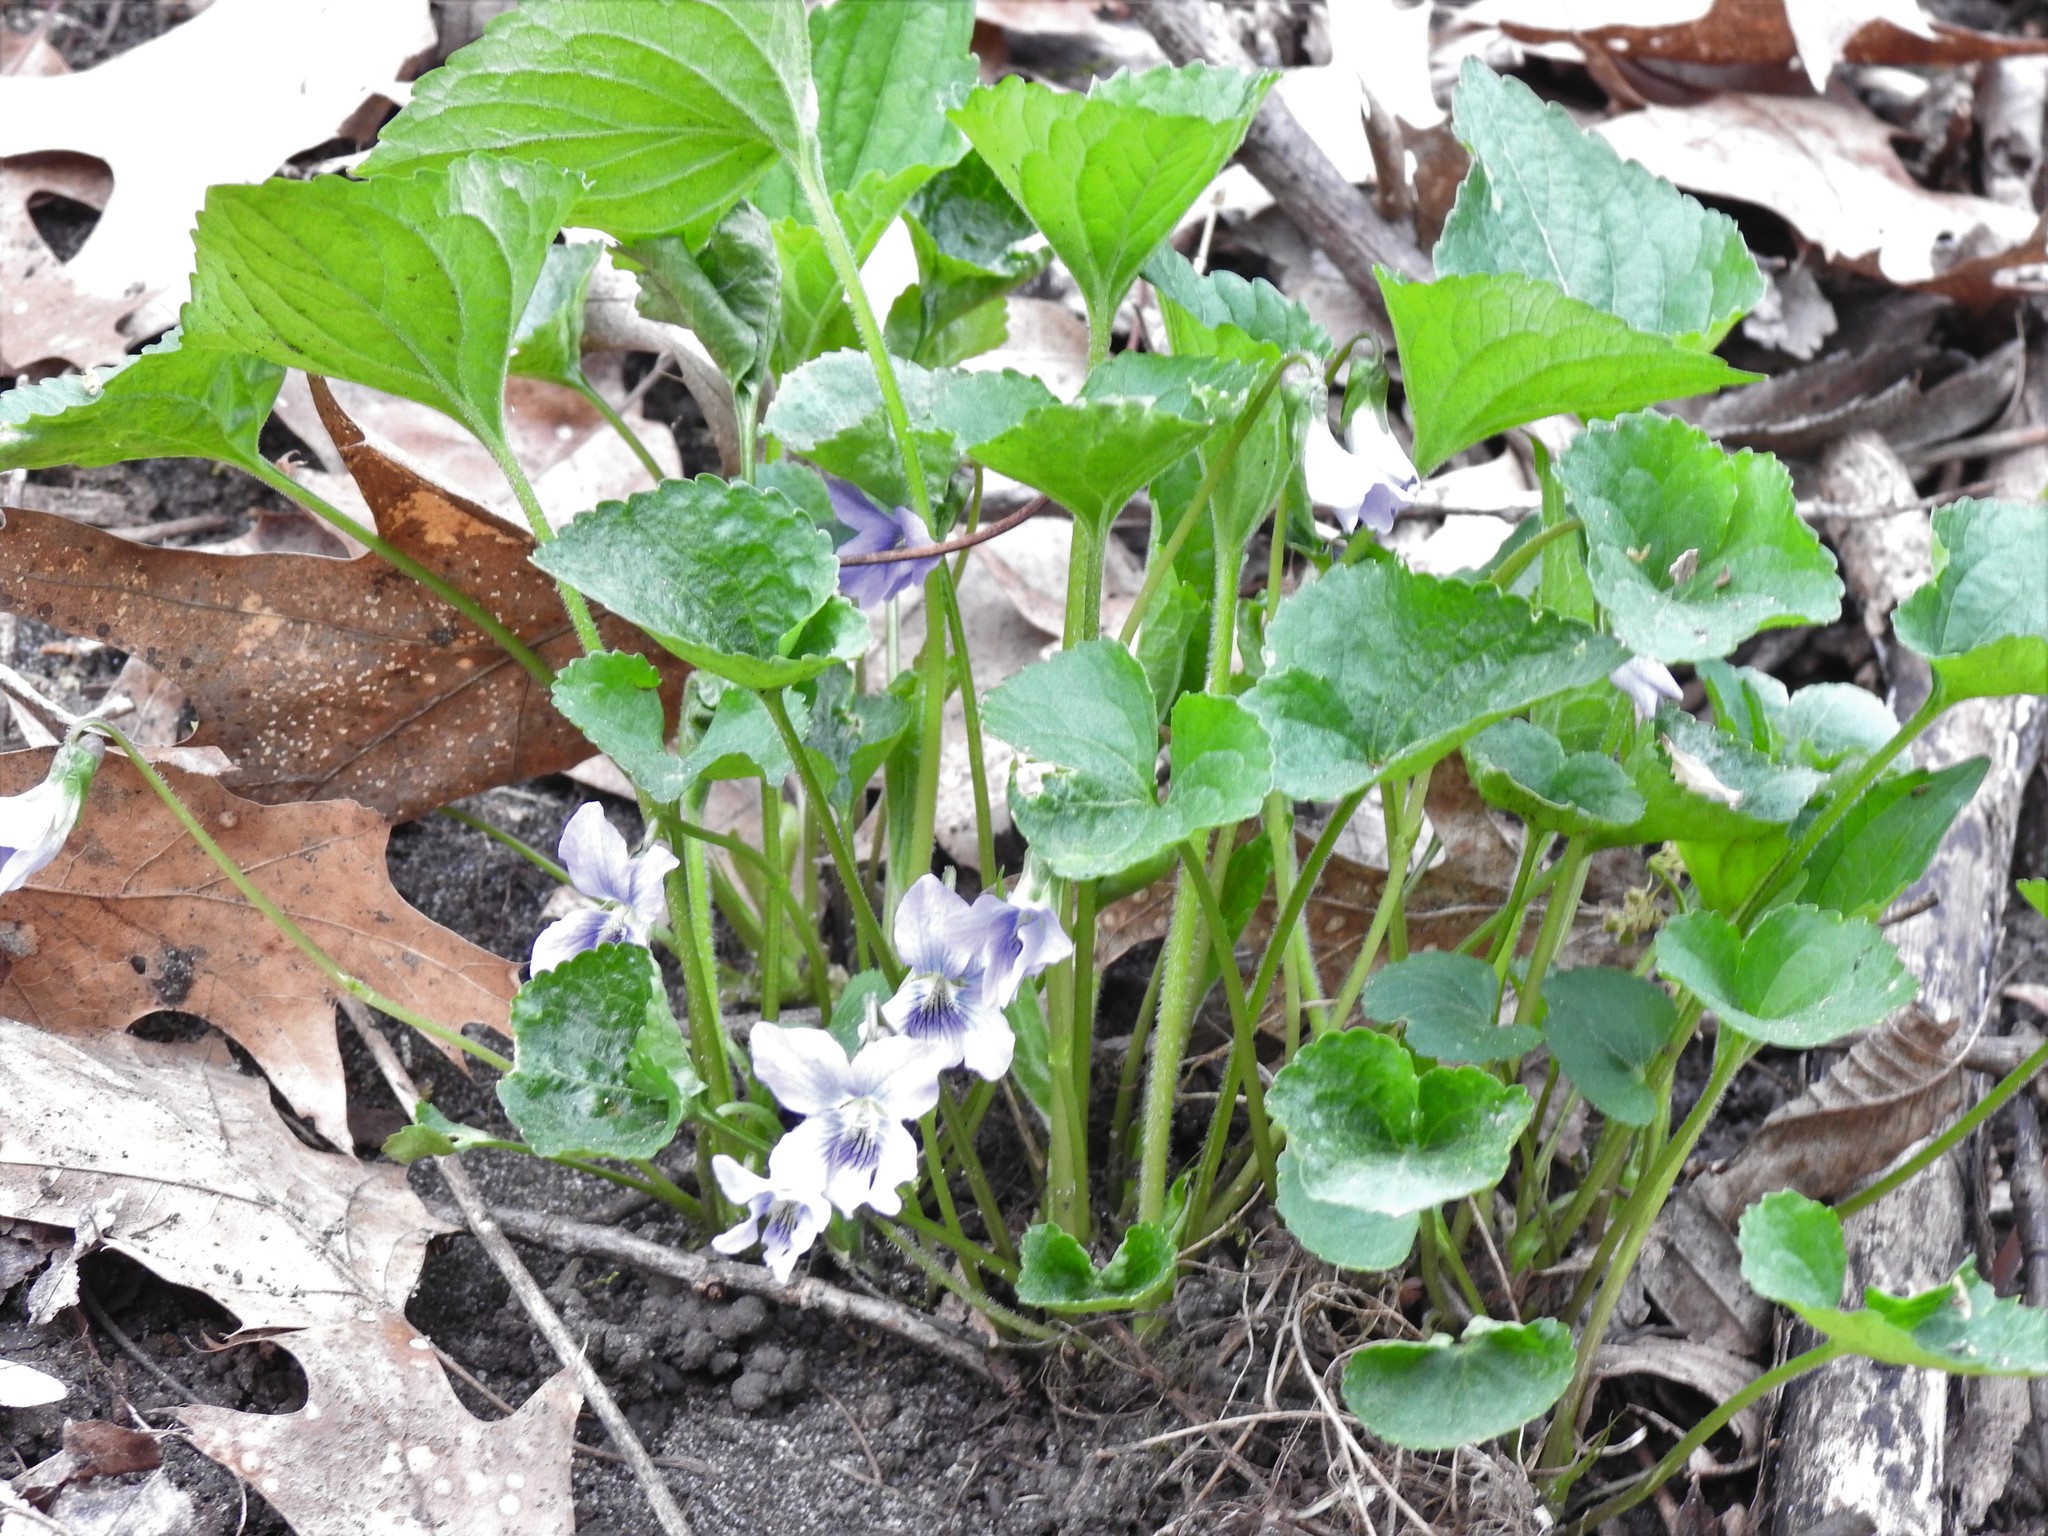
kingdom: Plantae
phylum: Tracheophyta
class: Magnoliopsida
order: Malpighiales
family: Violaceae
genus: Viola
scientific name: Viola sororia
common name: Dooryard violet
